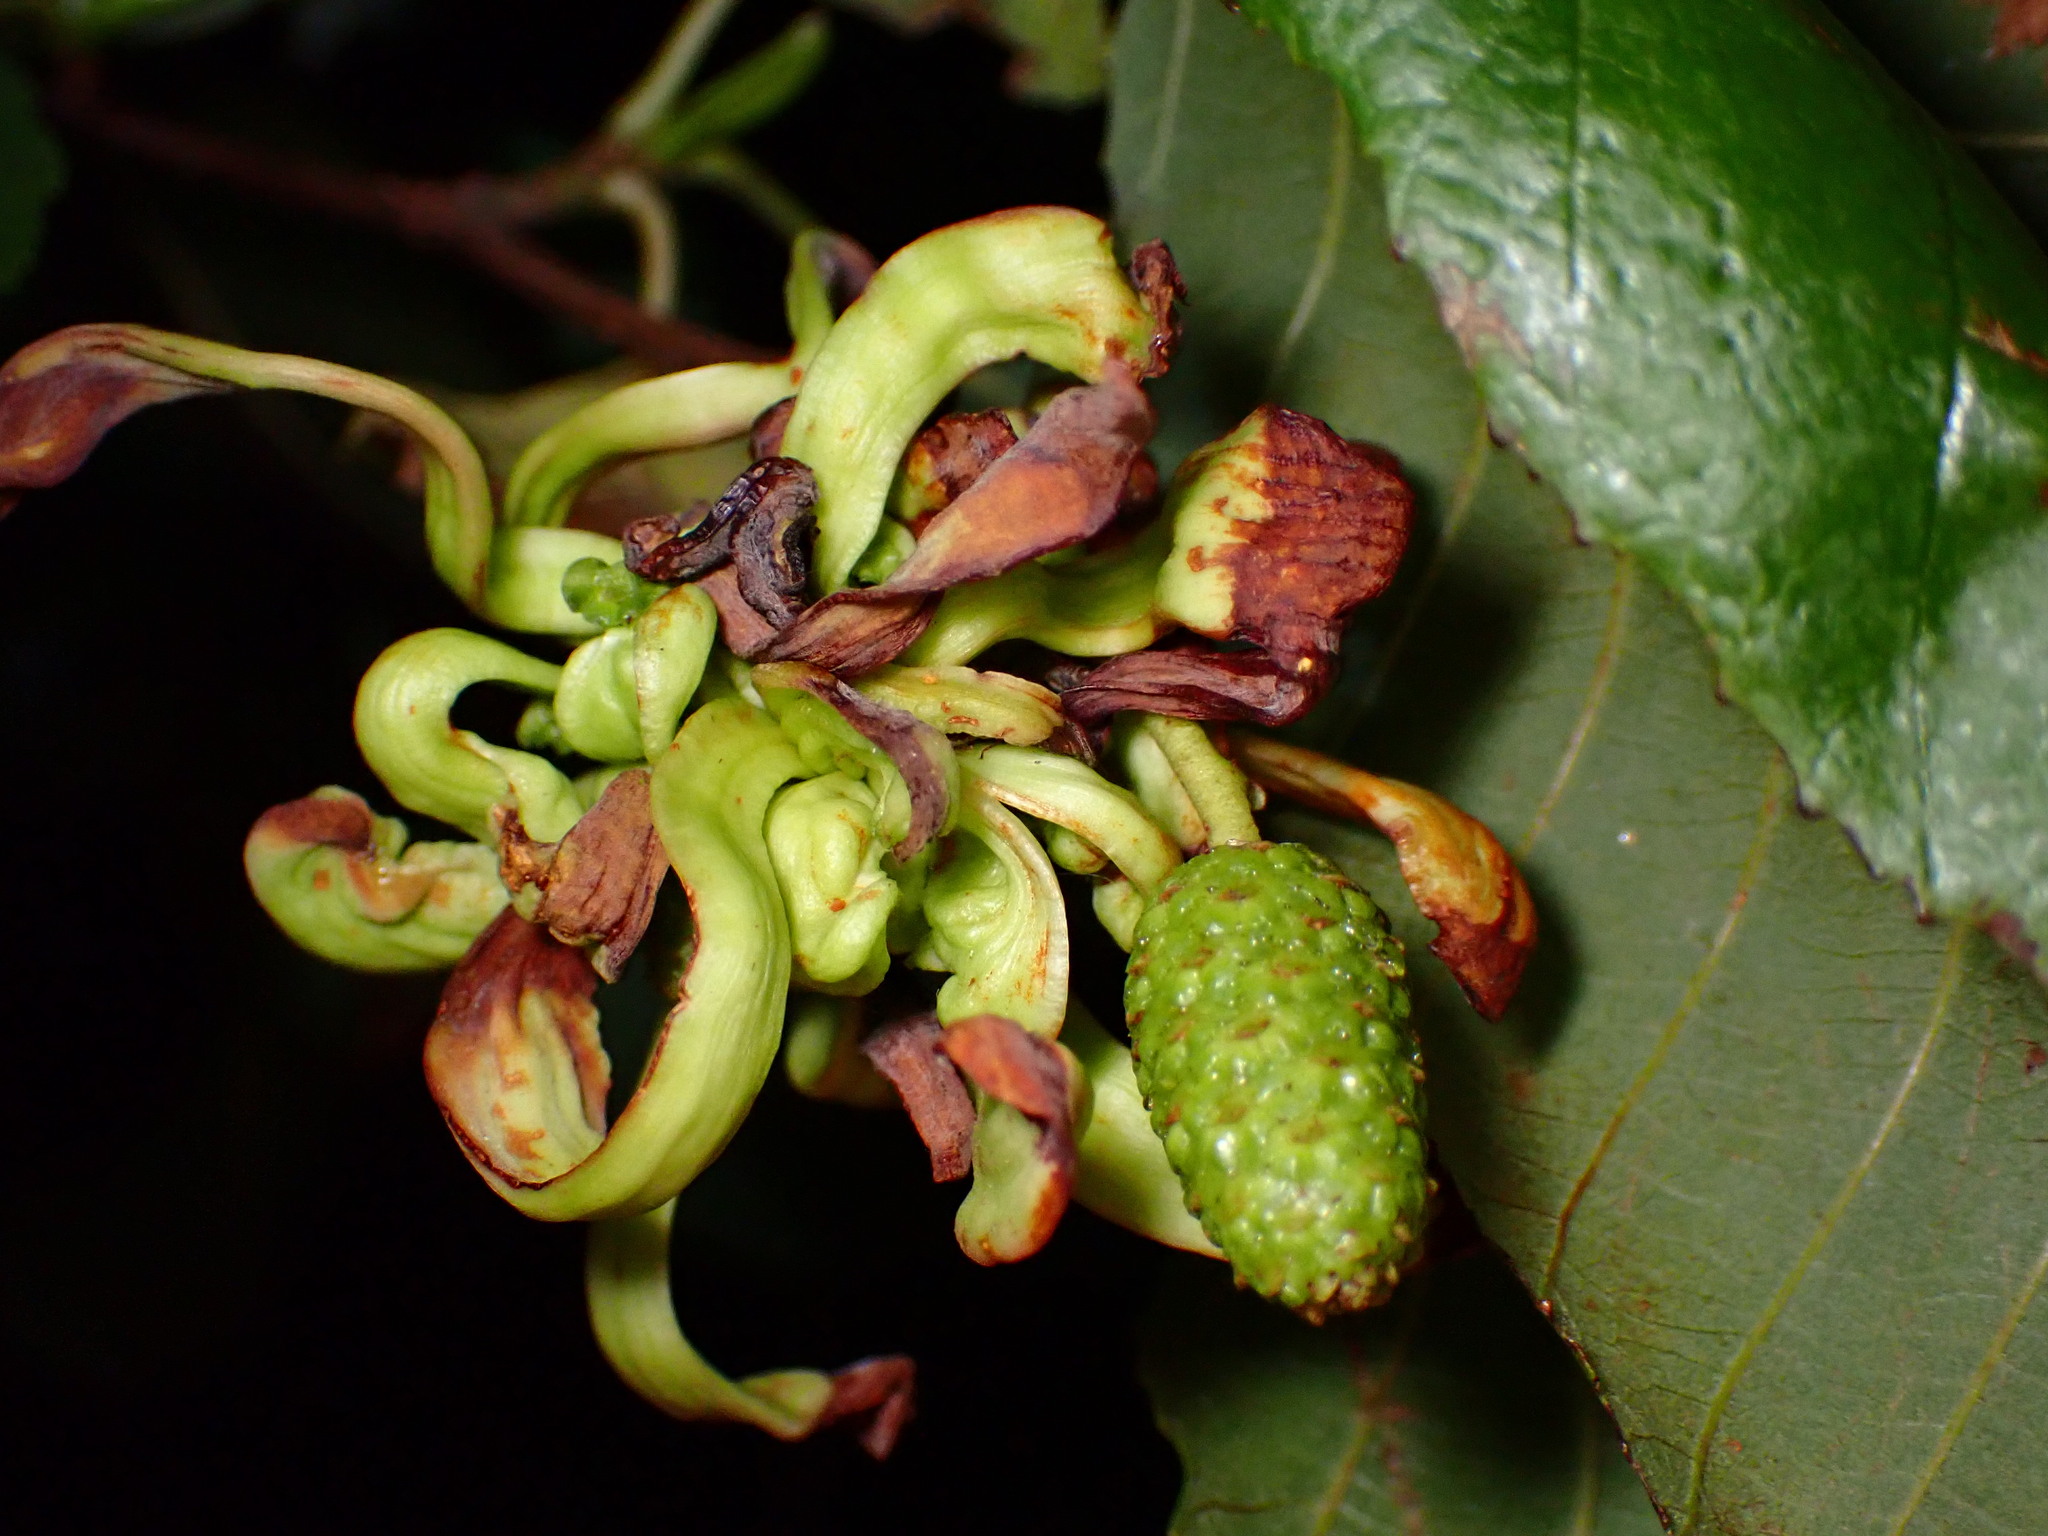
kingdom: Fungi
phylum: Ascomycota
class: Taphrinomycetes
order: Taphrinales
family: Taphrinaceae
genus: Taphrina
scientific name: Taphrina occidentalis
